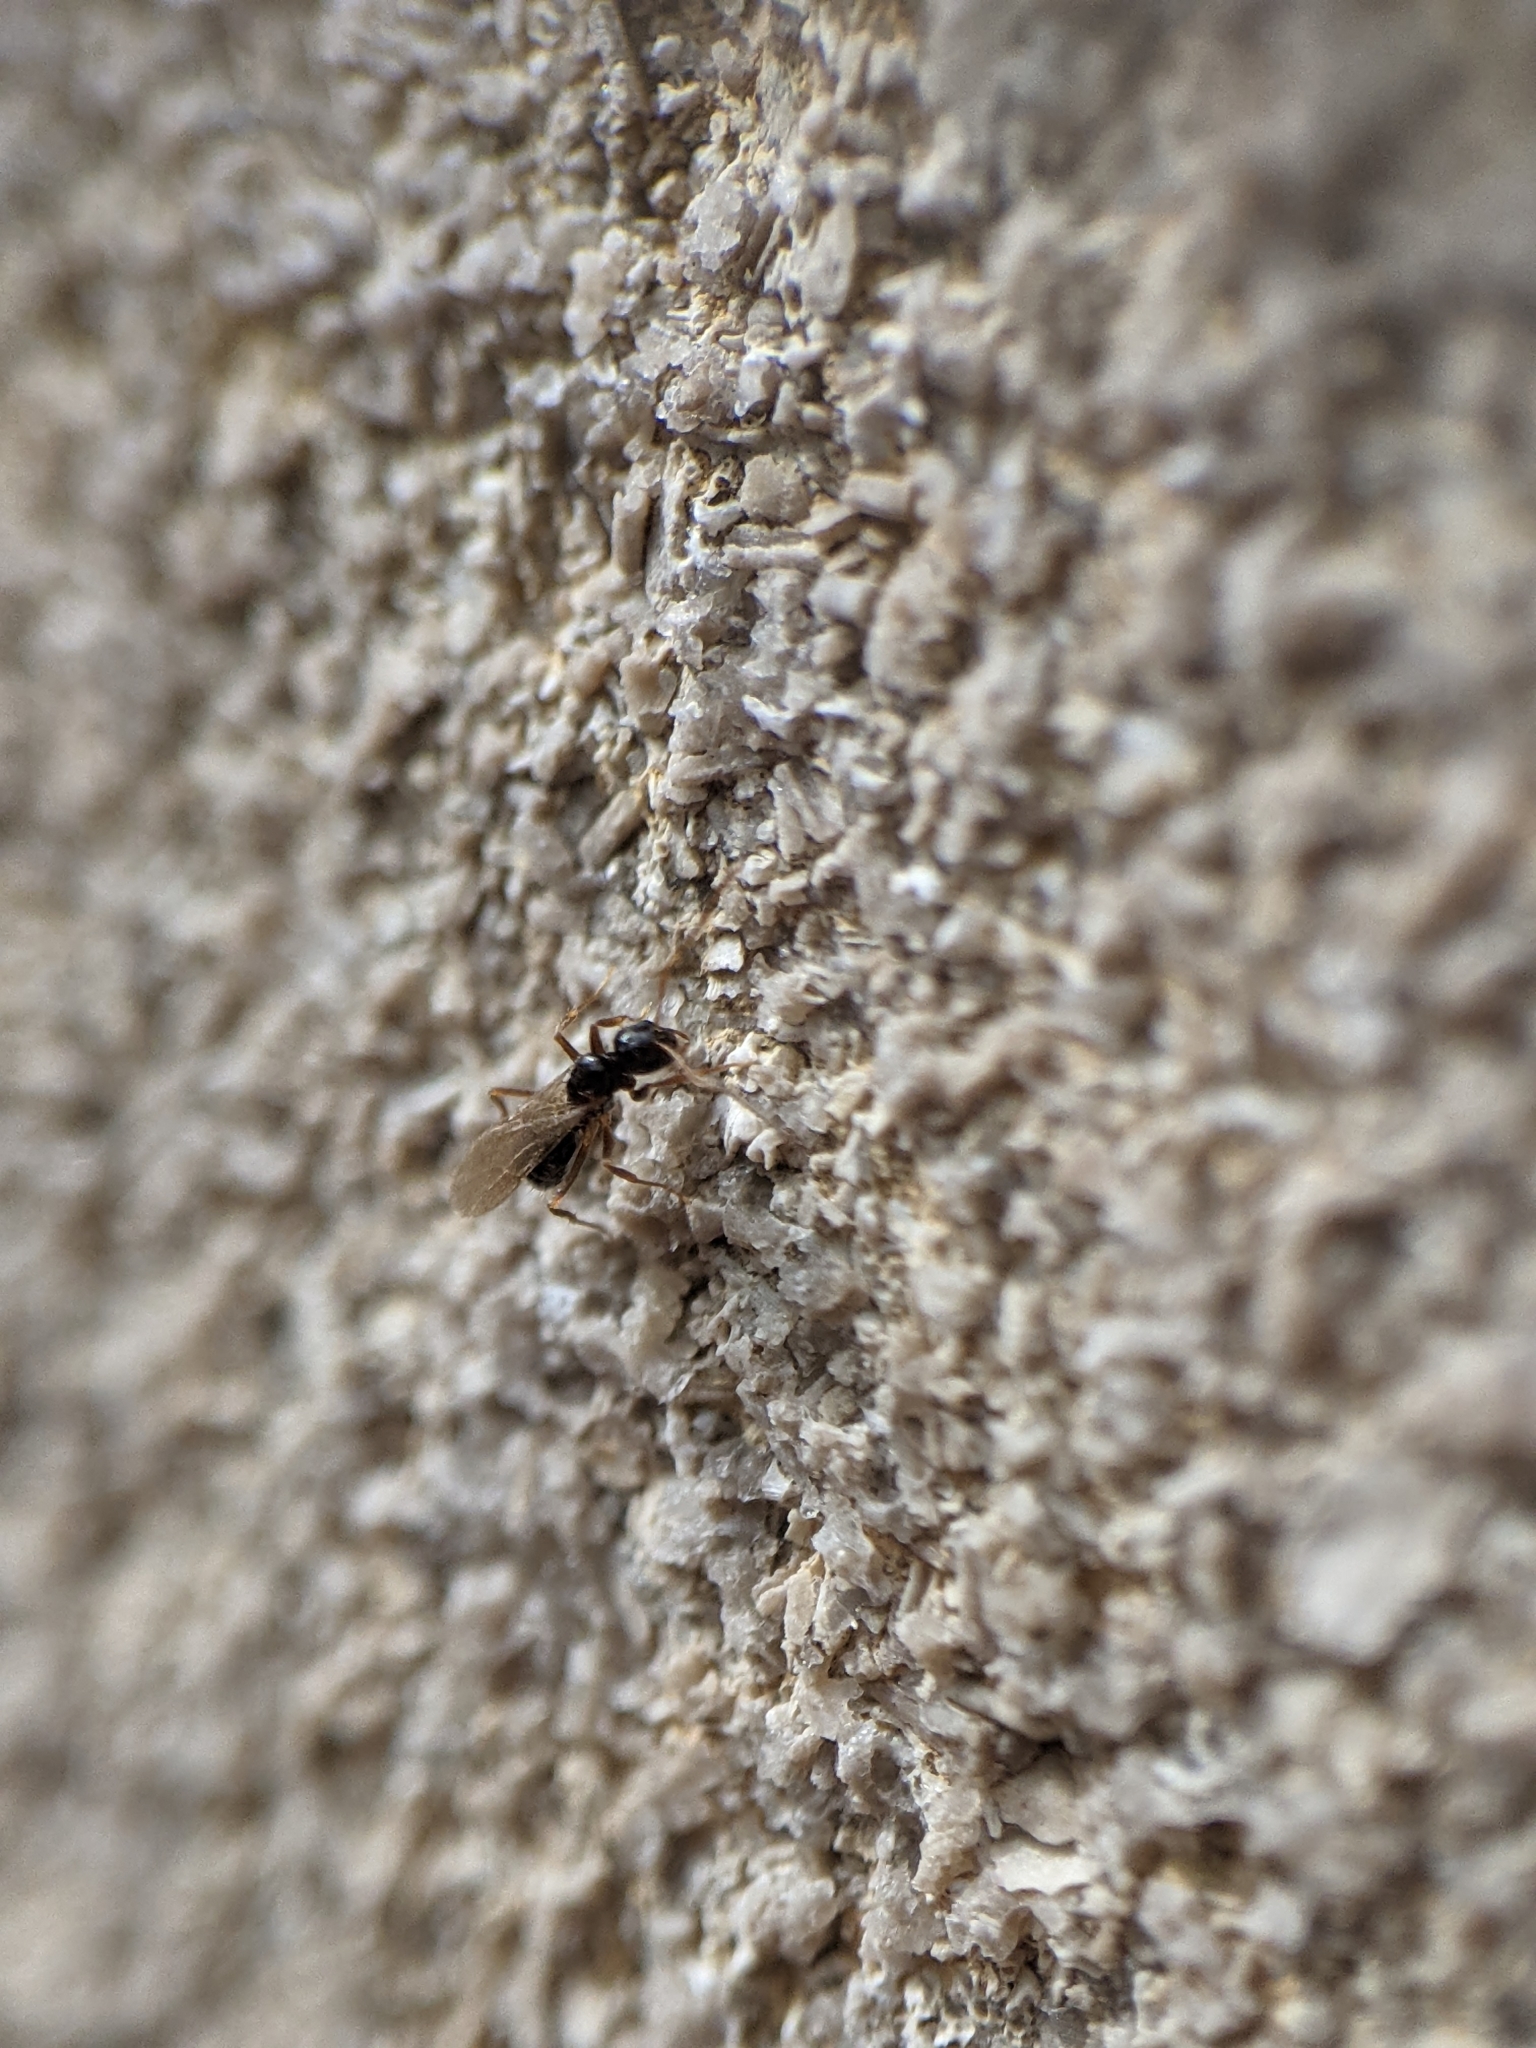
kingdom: Animalia
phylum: Arthropoda
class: Insecta
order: Hymenoptera
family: Formicidae
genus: Paratrechina
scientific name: Paratrechina flavipes
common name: Eastern asian formicine ant
